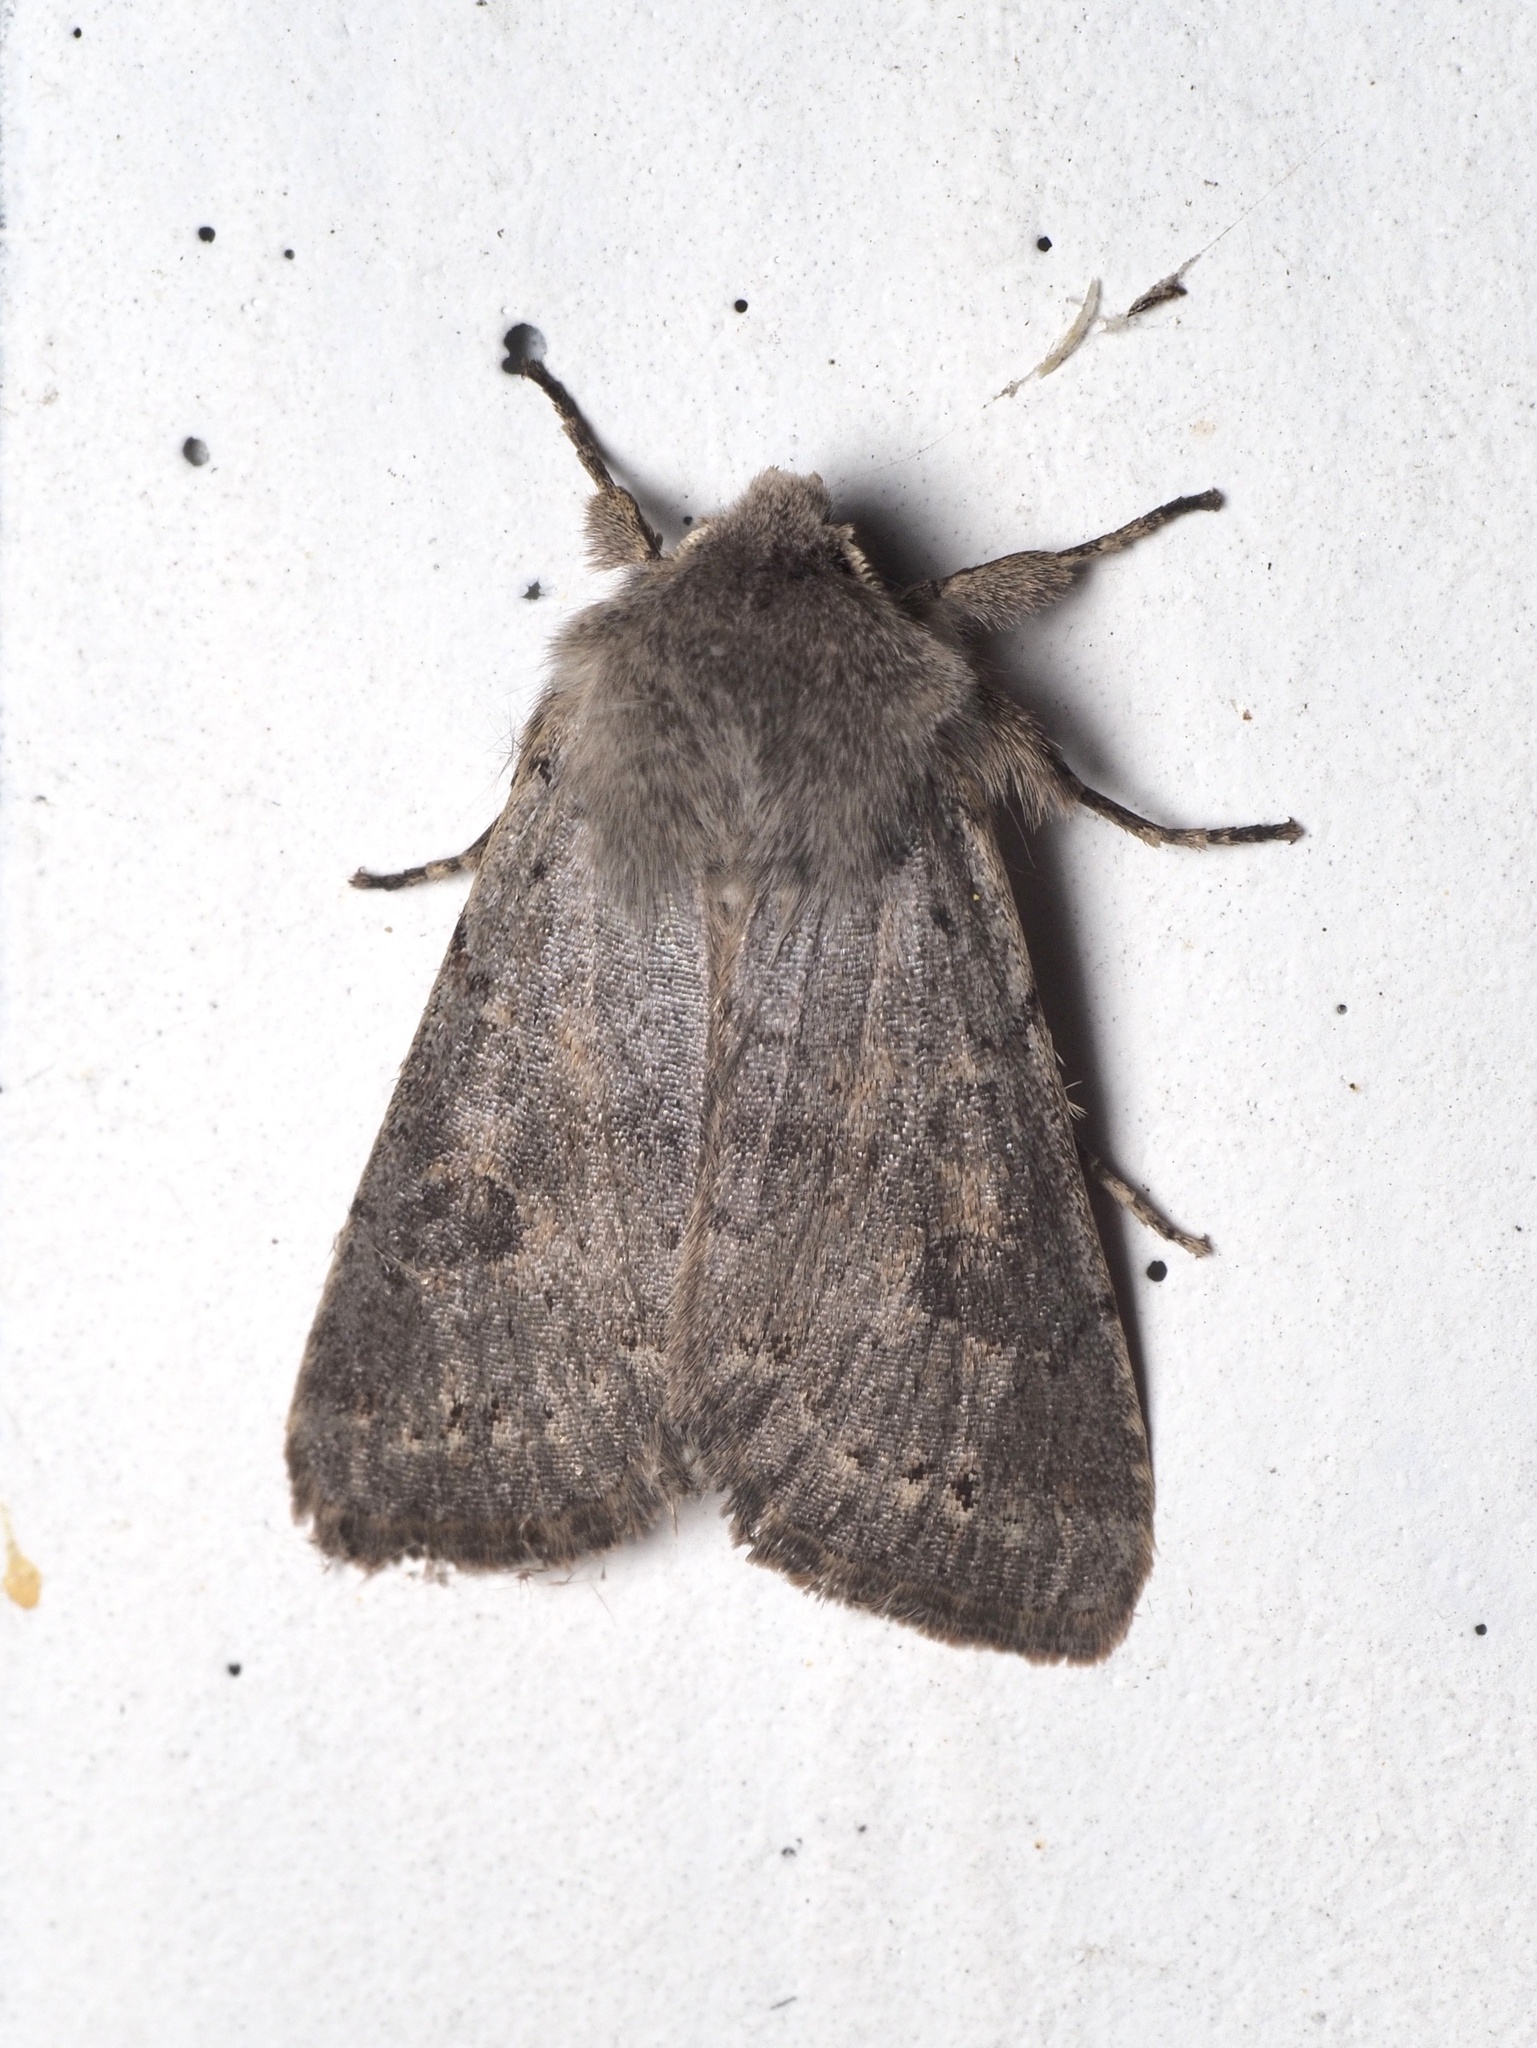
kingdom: Animalia
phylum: Arthropoda
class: Insecta
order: Lepidoptera
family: Noctuidae
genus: Orthosia
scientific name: Orthosia populeti
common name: Lead-coloured drab
